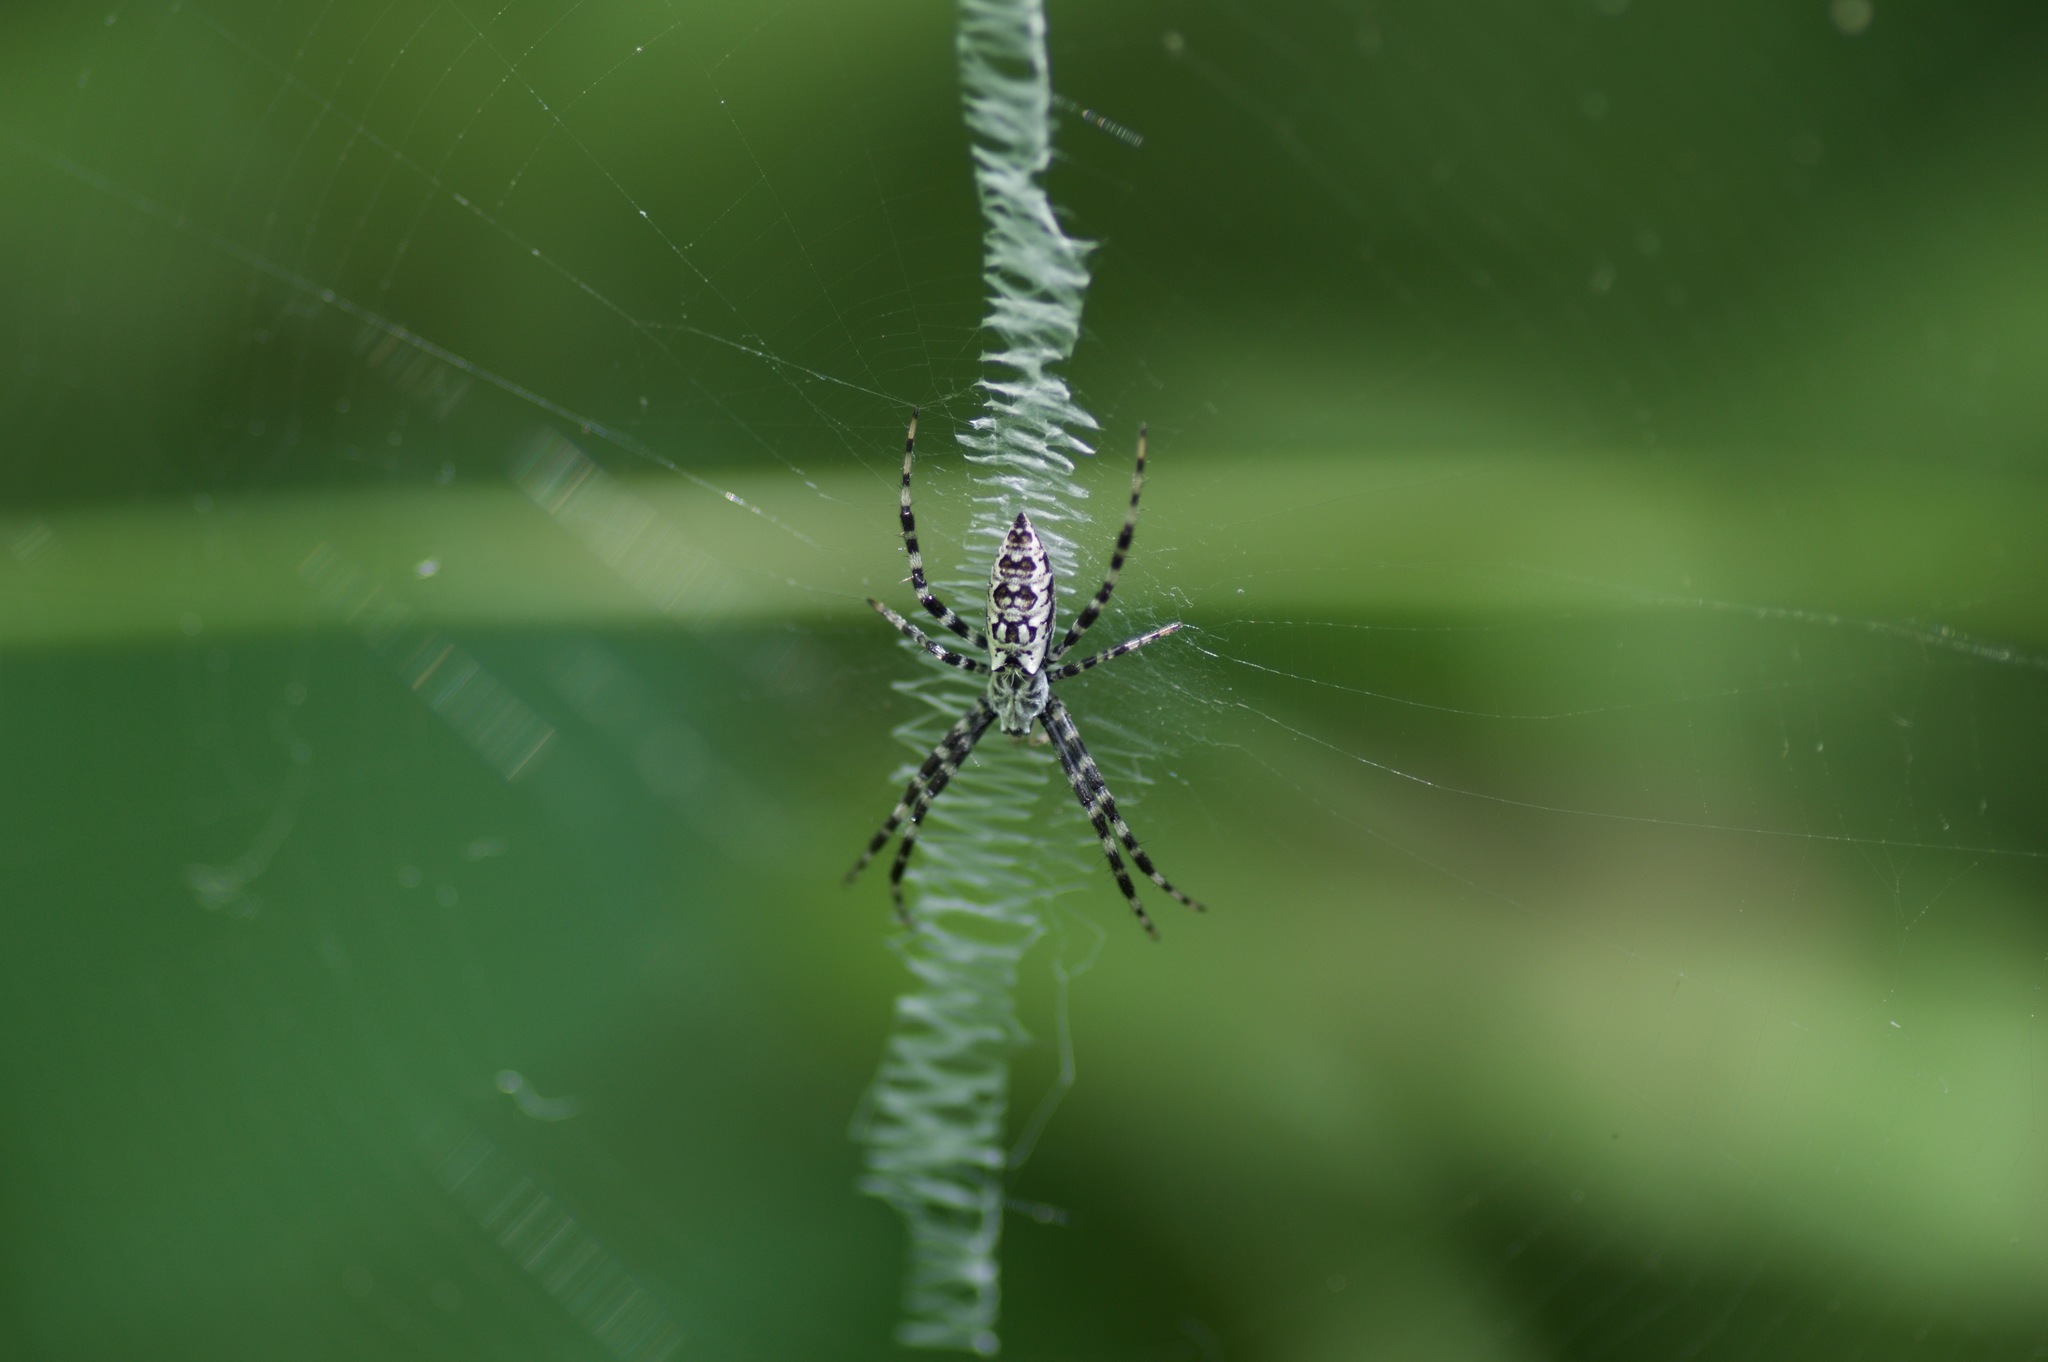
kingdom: Animalia
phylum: Arthropoda
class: Arachnida
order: Araneae
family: Araneidae
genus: Argiope
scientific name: Argiope aurantia
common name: Orb weavers
